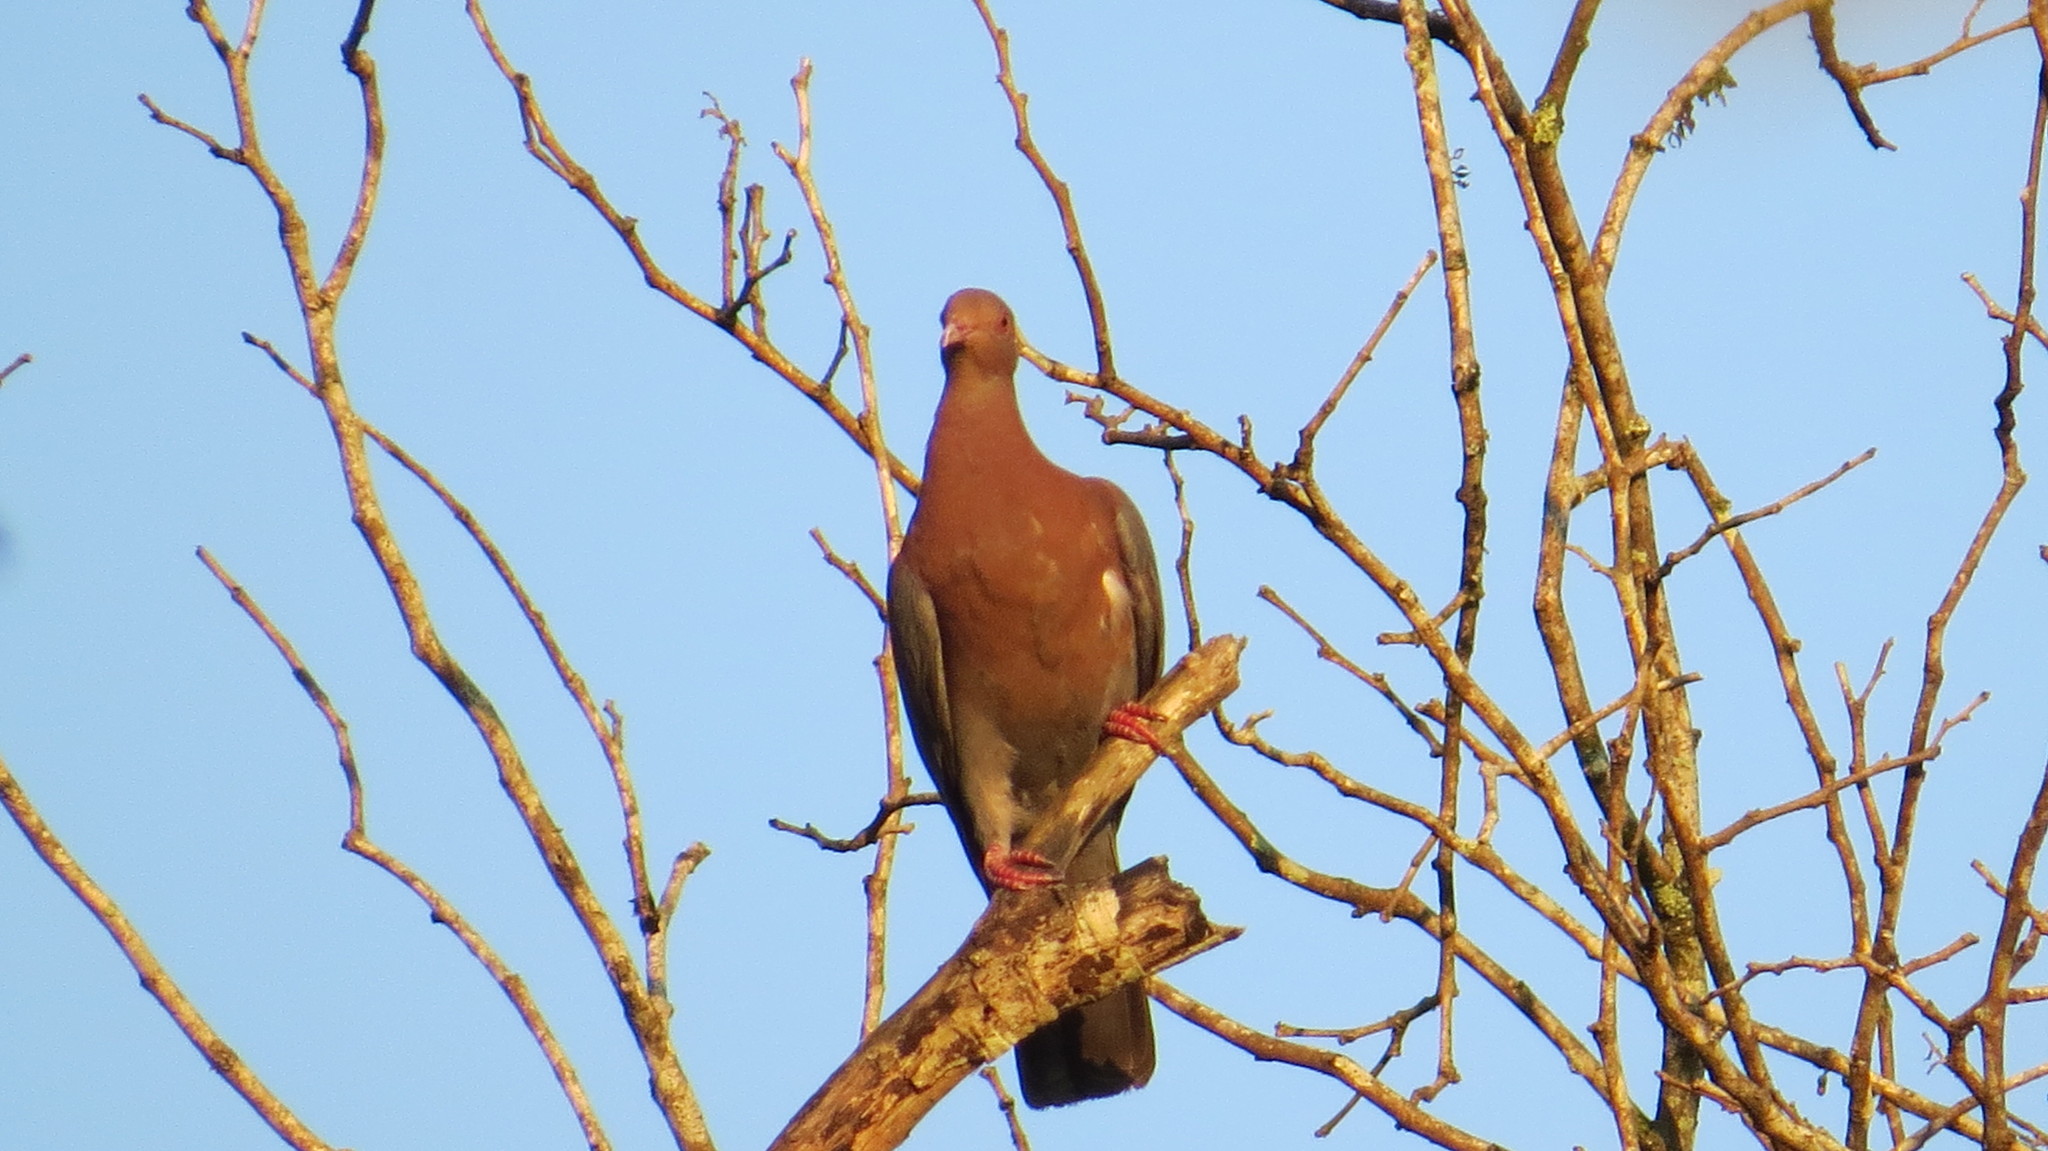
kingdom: Animalia
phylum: Chordata
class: Aves
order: Columbiformes
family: Columbidae
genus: Patagioenas
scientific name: Patagioenas flavirostris
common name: Red-billed pigeon
